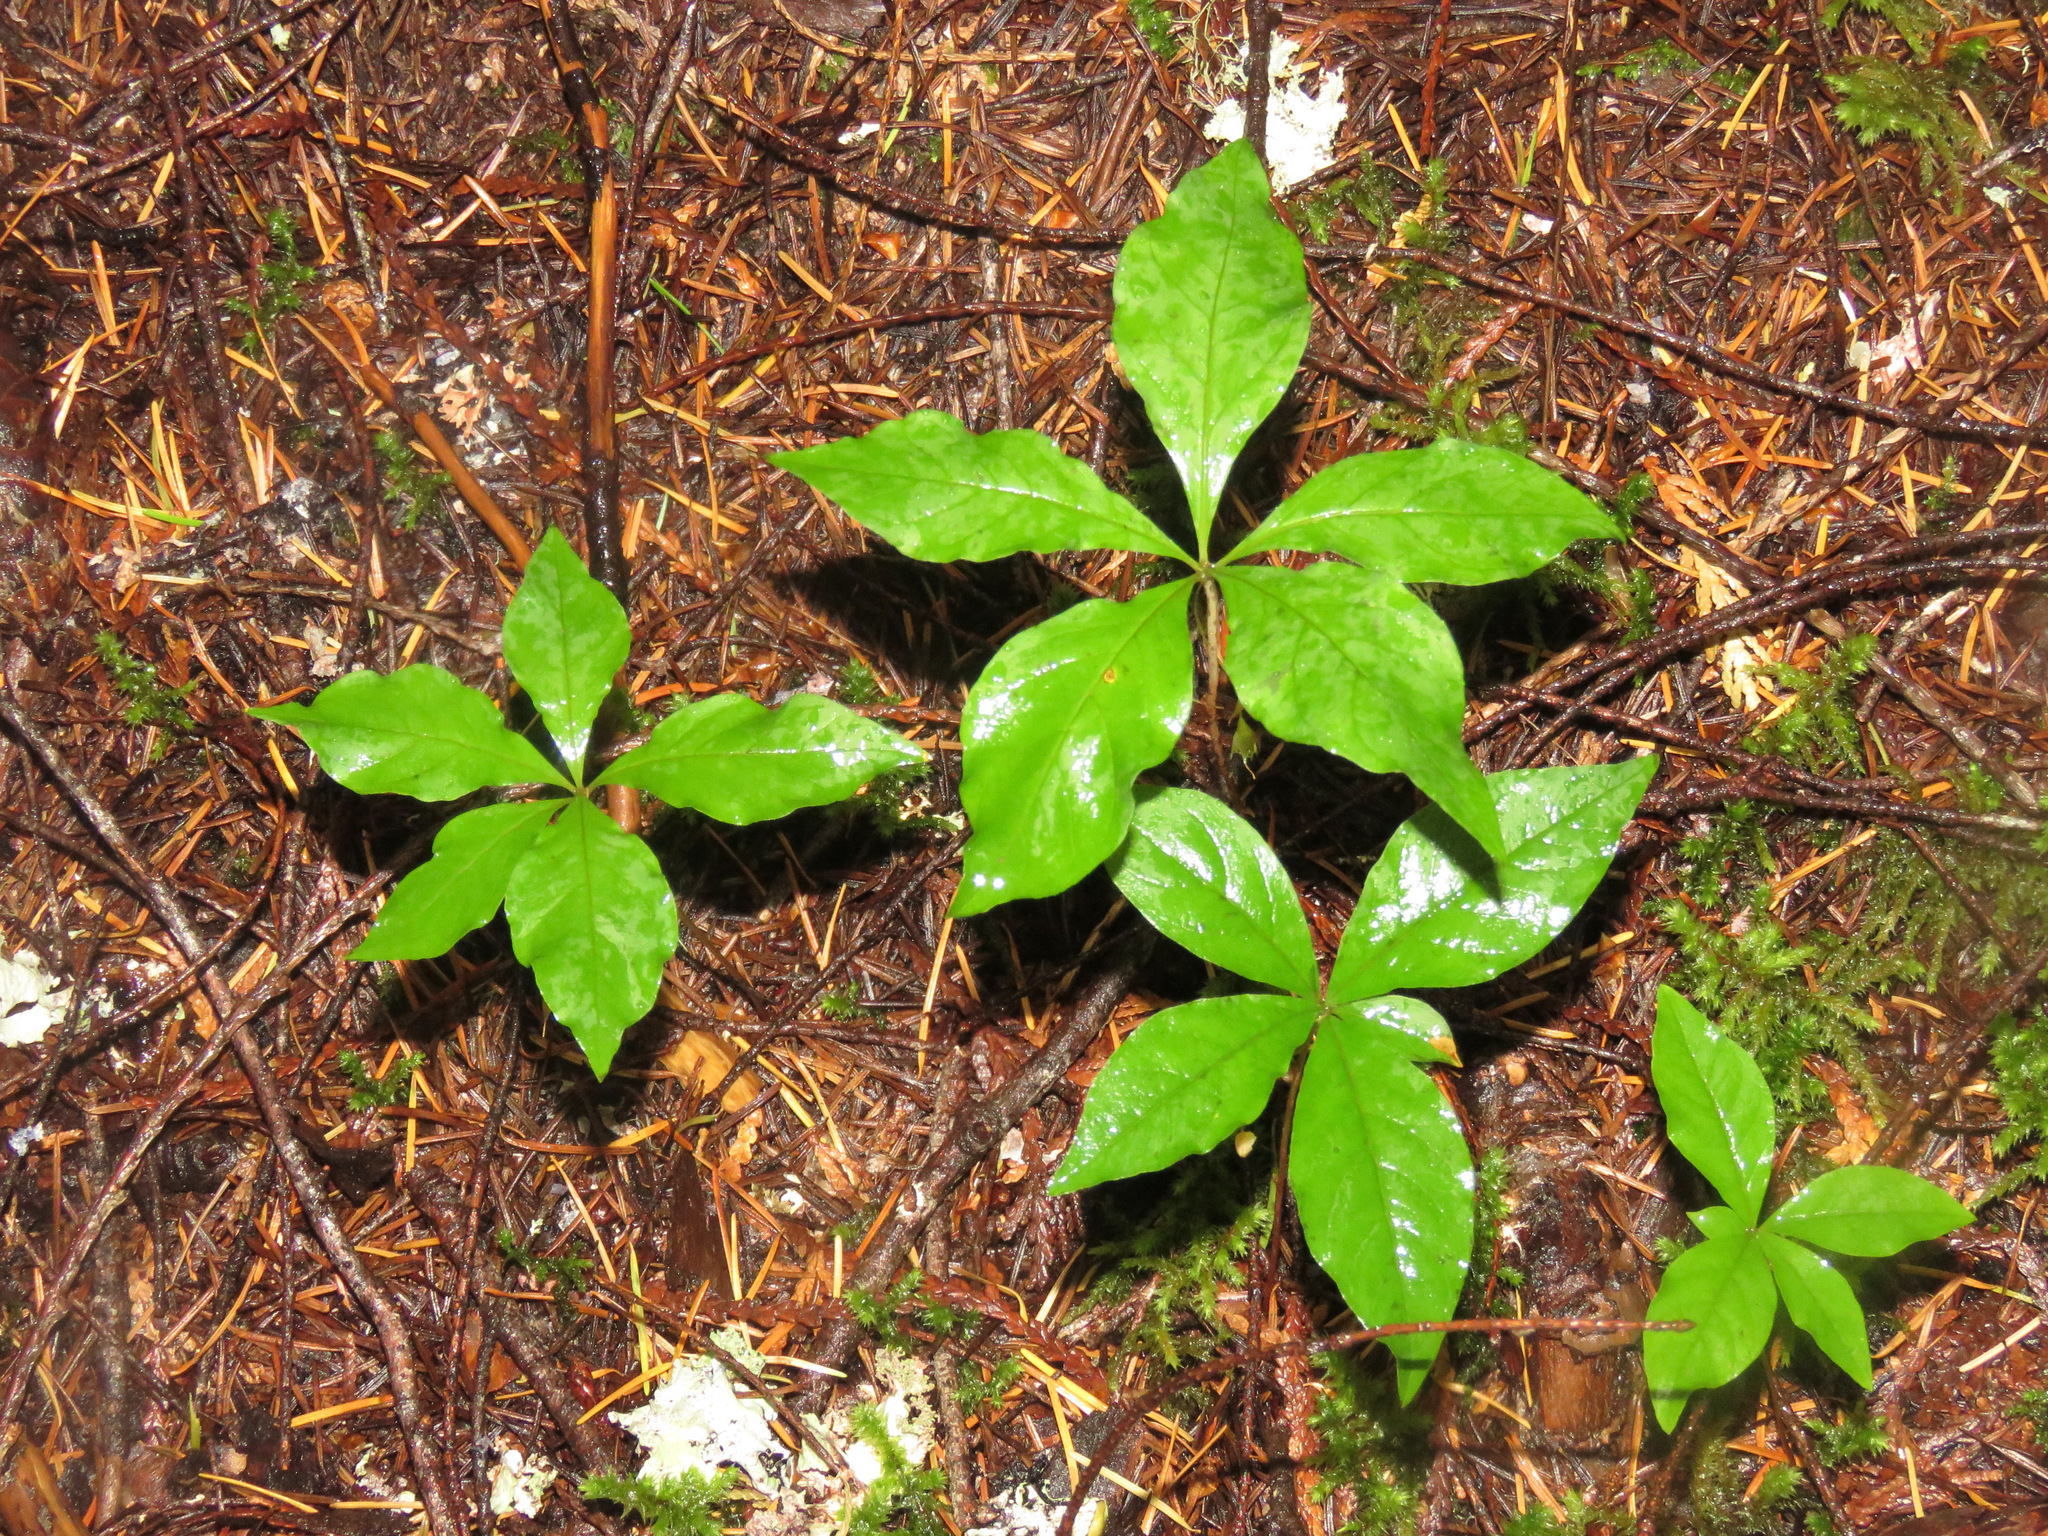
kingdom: Plantae
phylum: Tracheophyta
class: Magnoliopsida
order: Ericales
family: Primulaceae
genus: Lysimachia
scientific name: Lysimachia latifolia
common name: Pacific starflower
